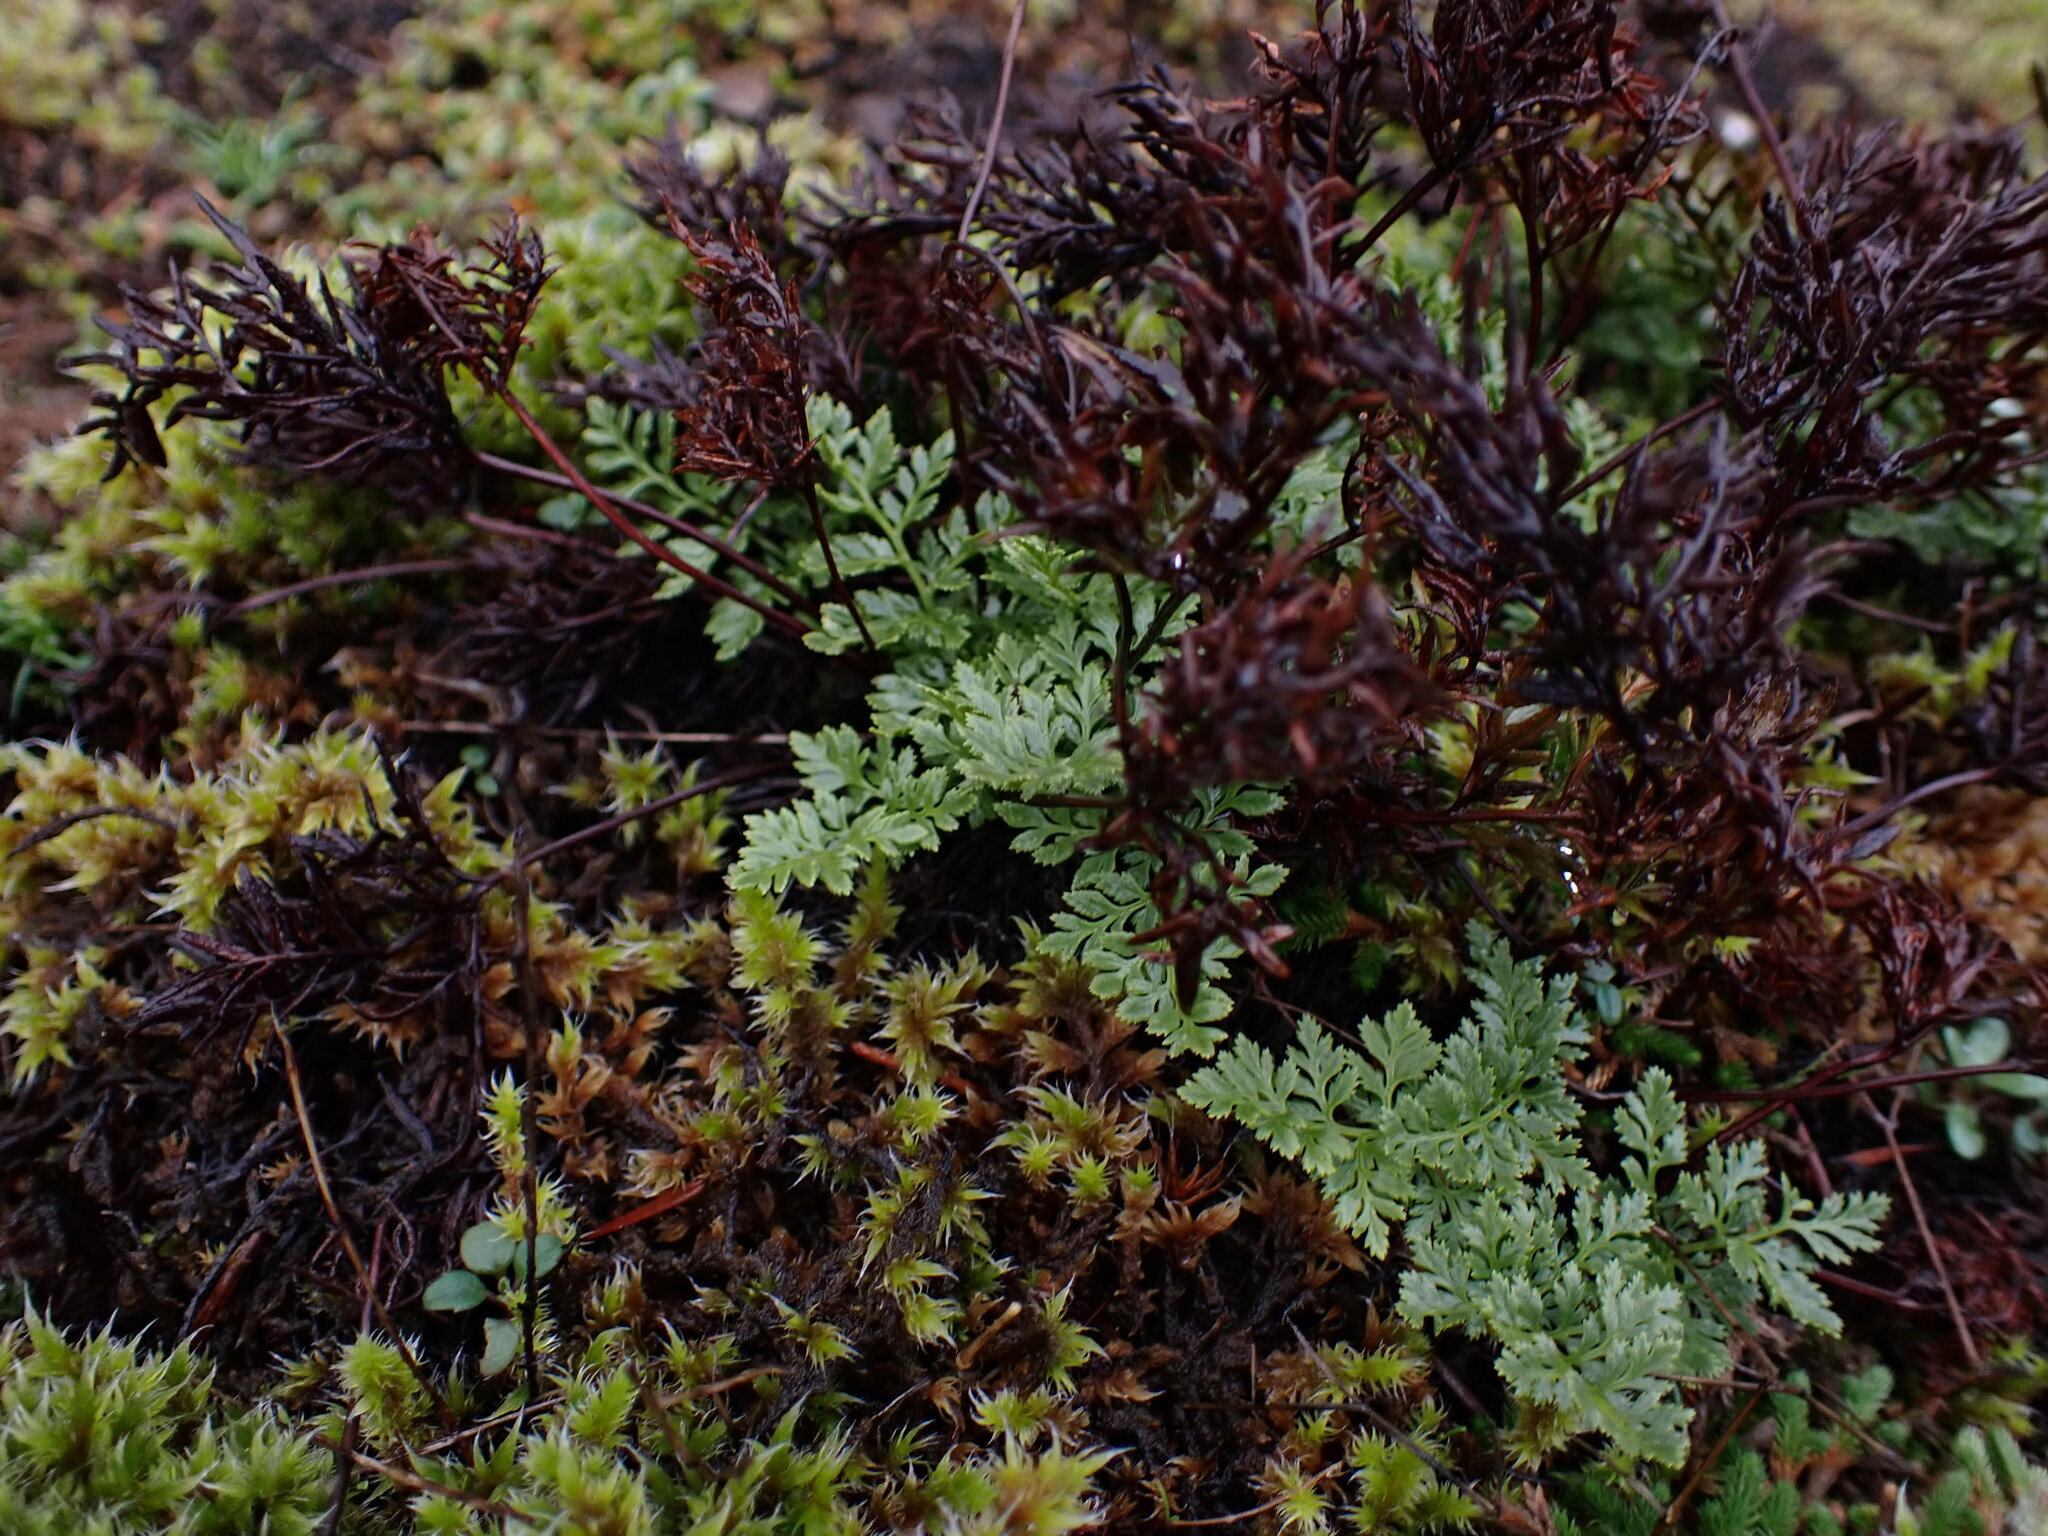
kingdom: Plantae
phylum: Tracheophyta
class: Polypodiopsida
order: Polypodiales
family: Pteridaceae
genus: Aspidotis
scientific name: Aspidotis densa
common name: Indian's dream
